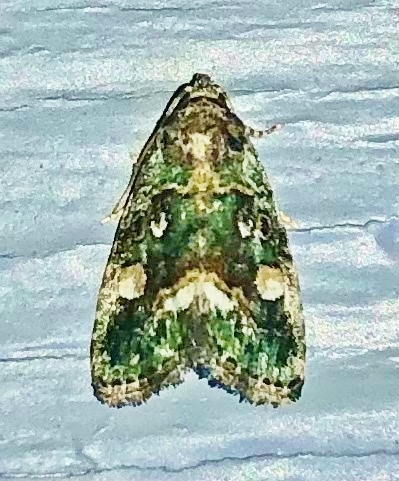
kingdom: Animalia
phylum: Arthropoda
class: Insecta
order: Lepidoptera
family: Noctuidae
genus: Lithacodia
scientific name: Lithacodia musta
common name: Small mossy glyph
